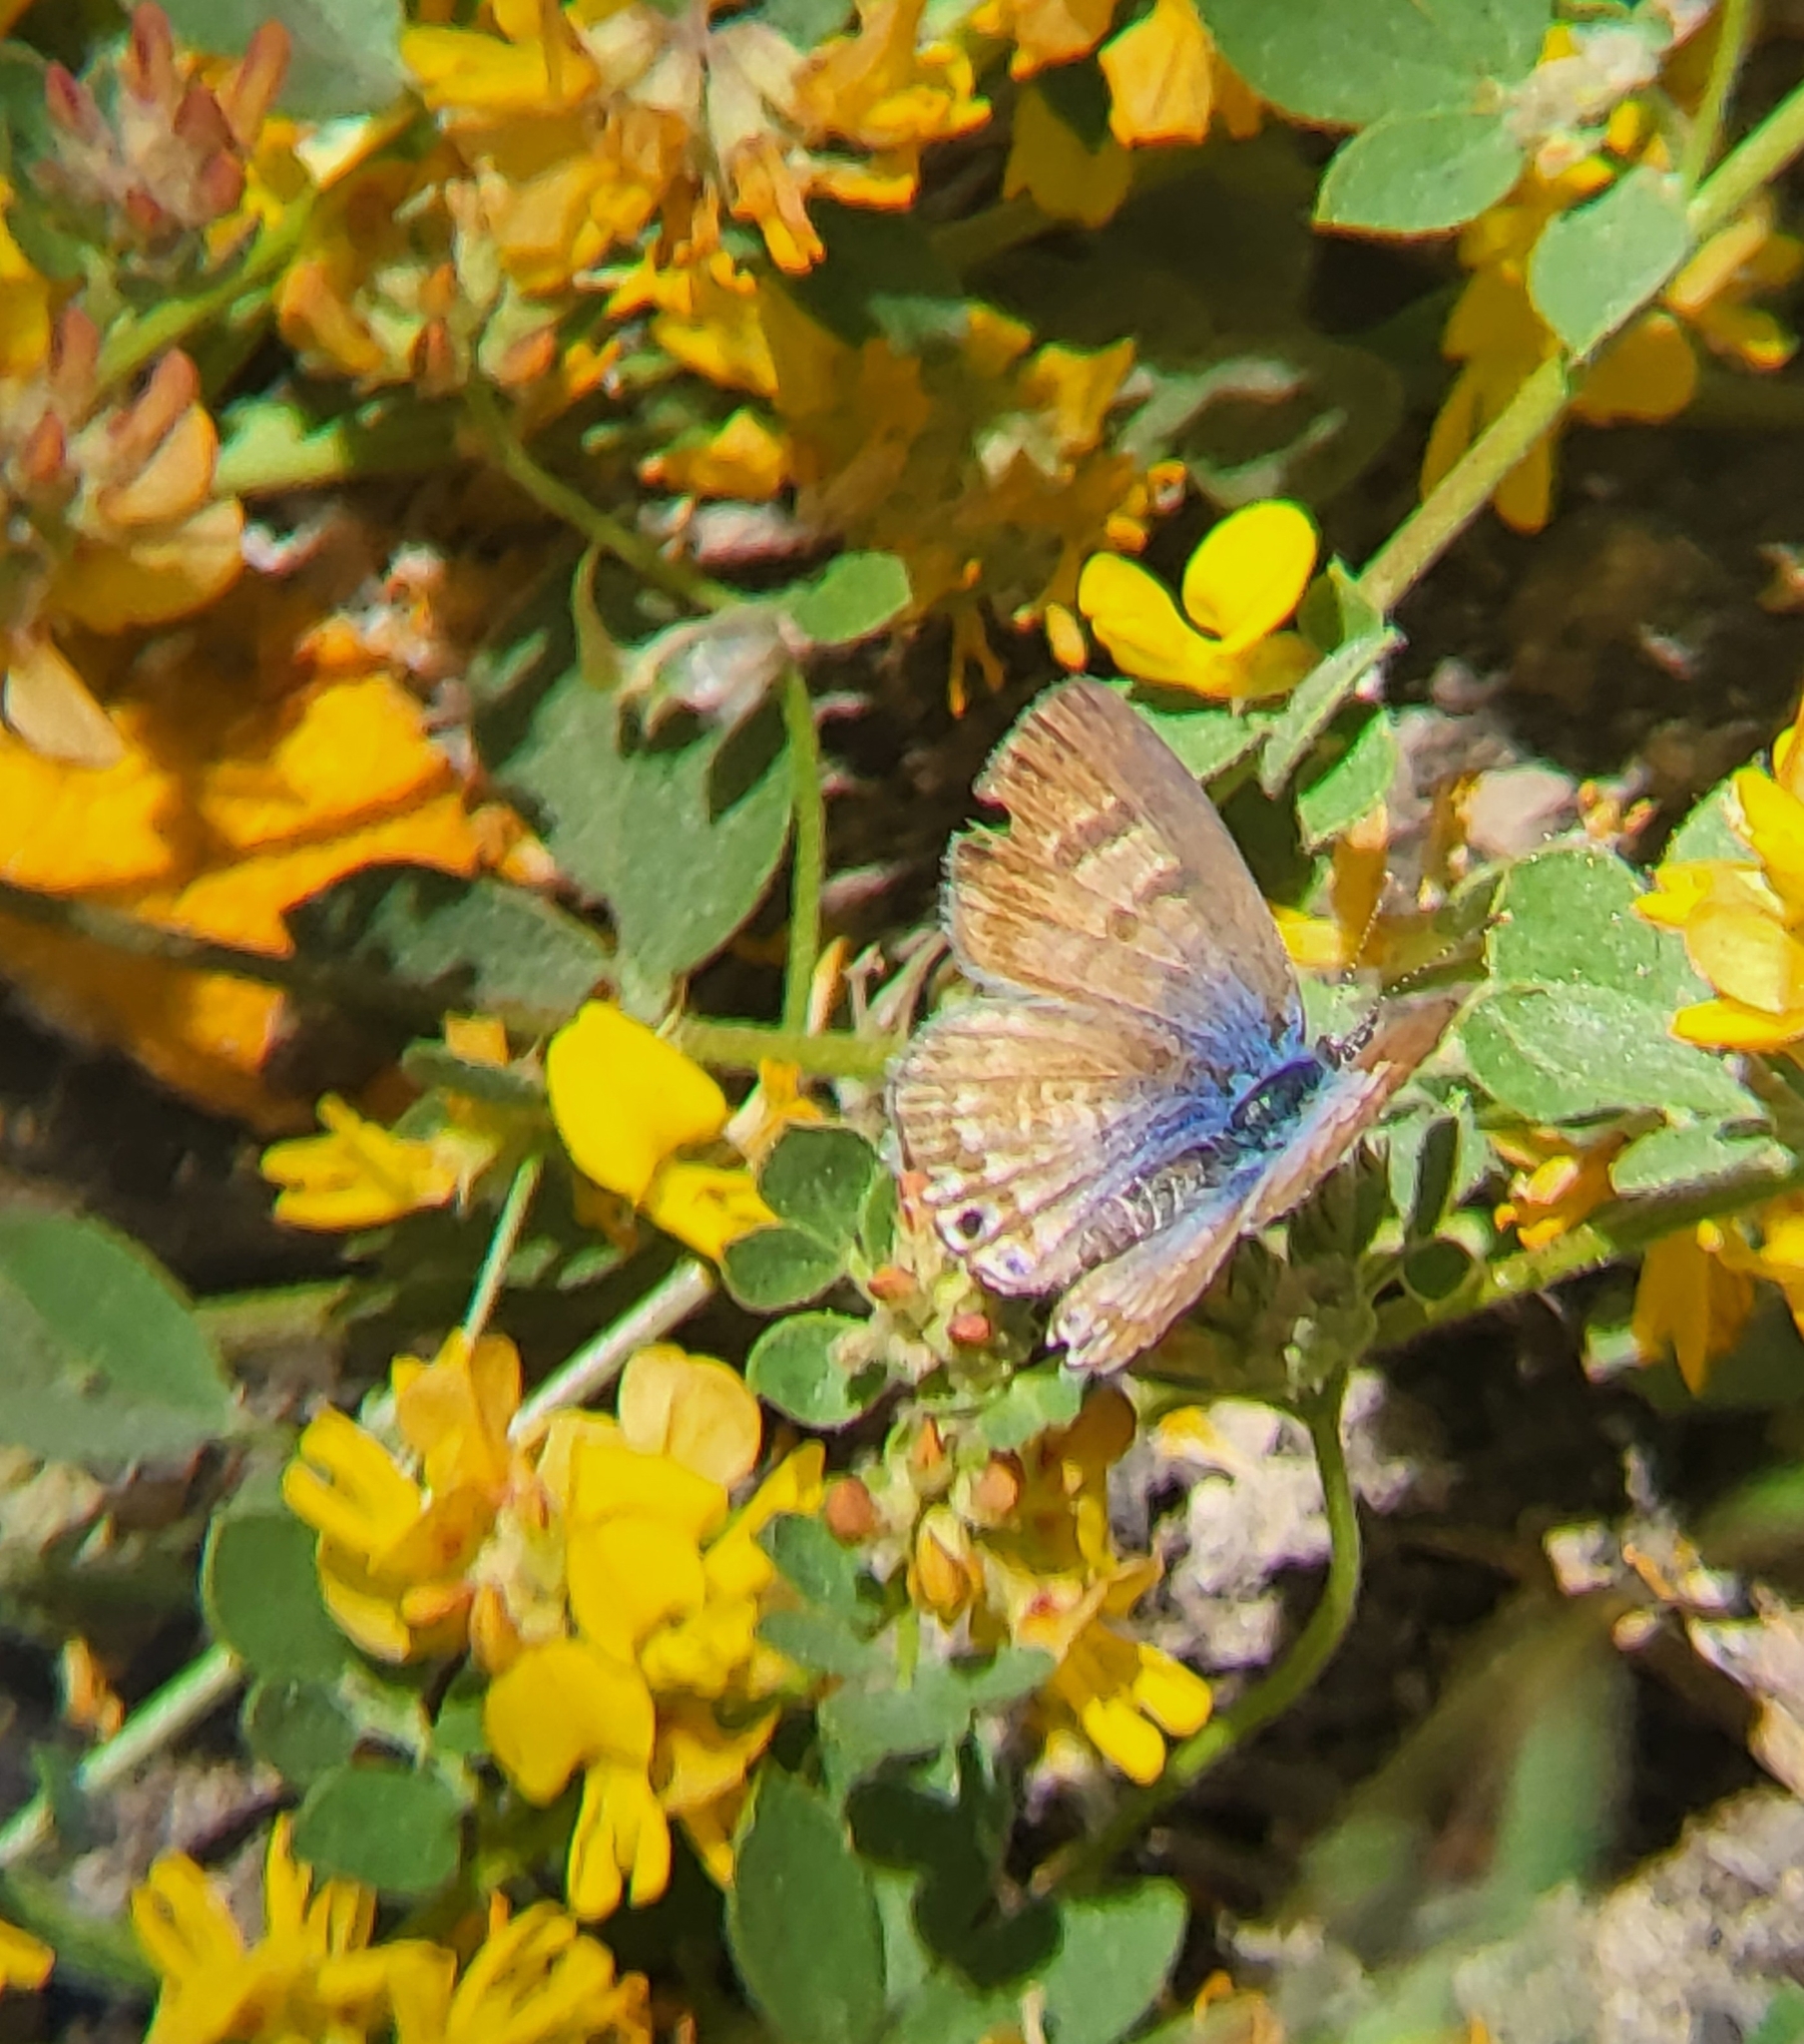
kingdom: Animalia
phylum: Arthropoda
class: Insecta
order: Lepidoptera
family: Lycaenidae
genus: Leptotes
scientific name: Leptotes marina
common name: Marine blue
